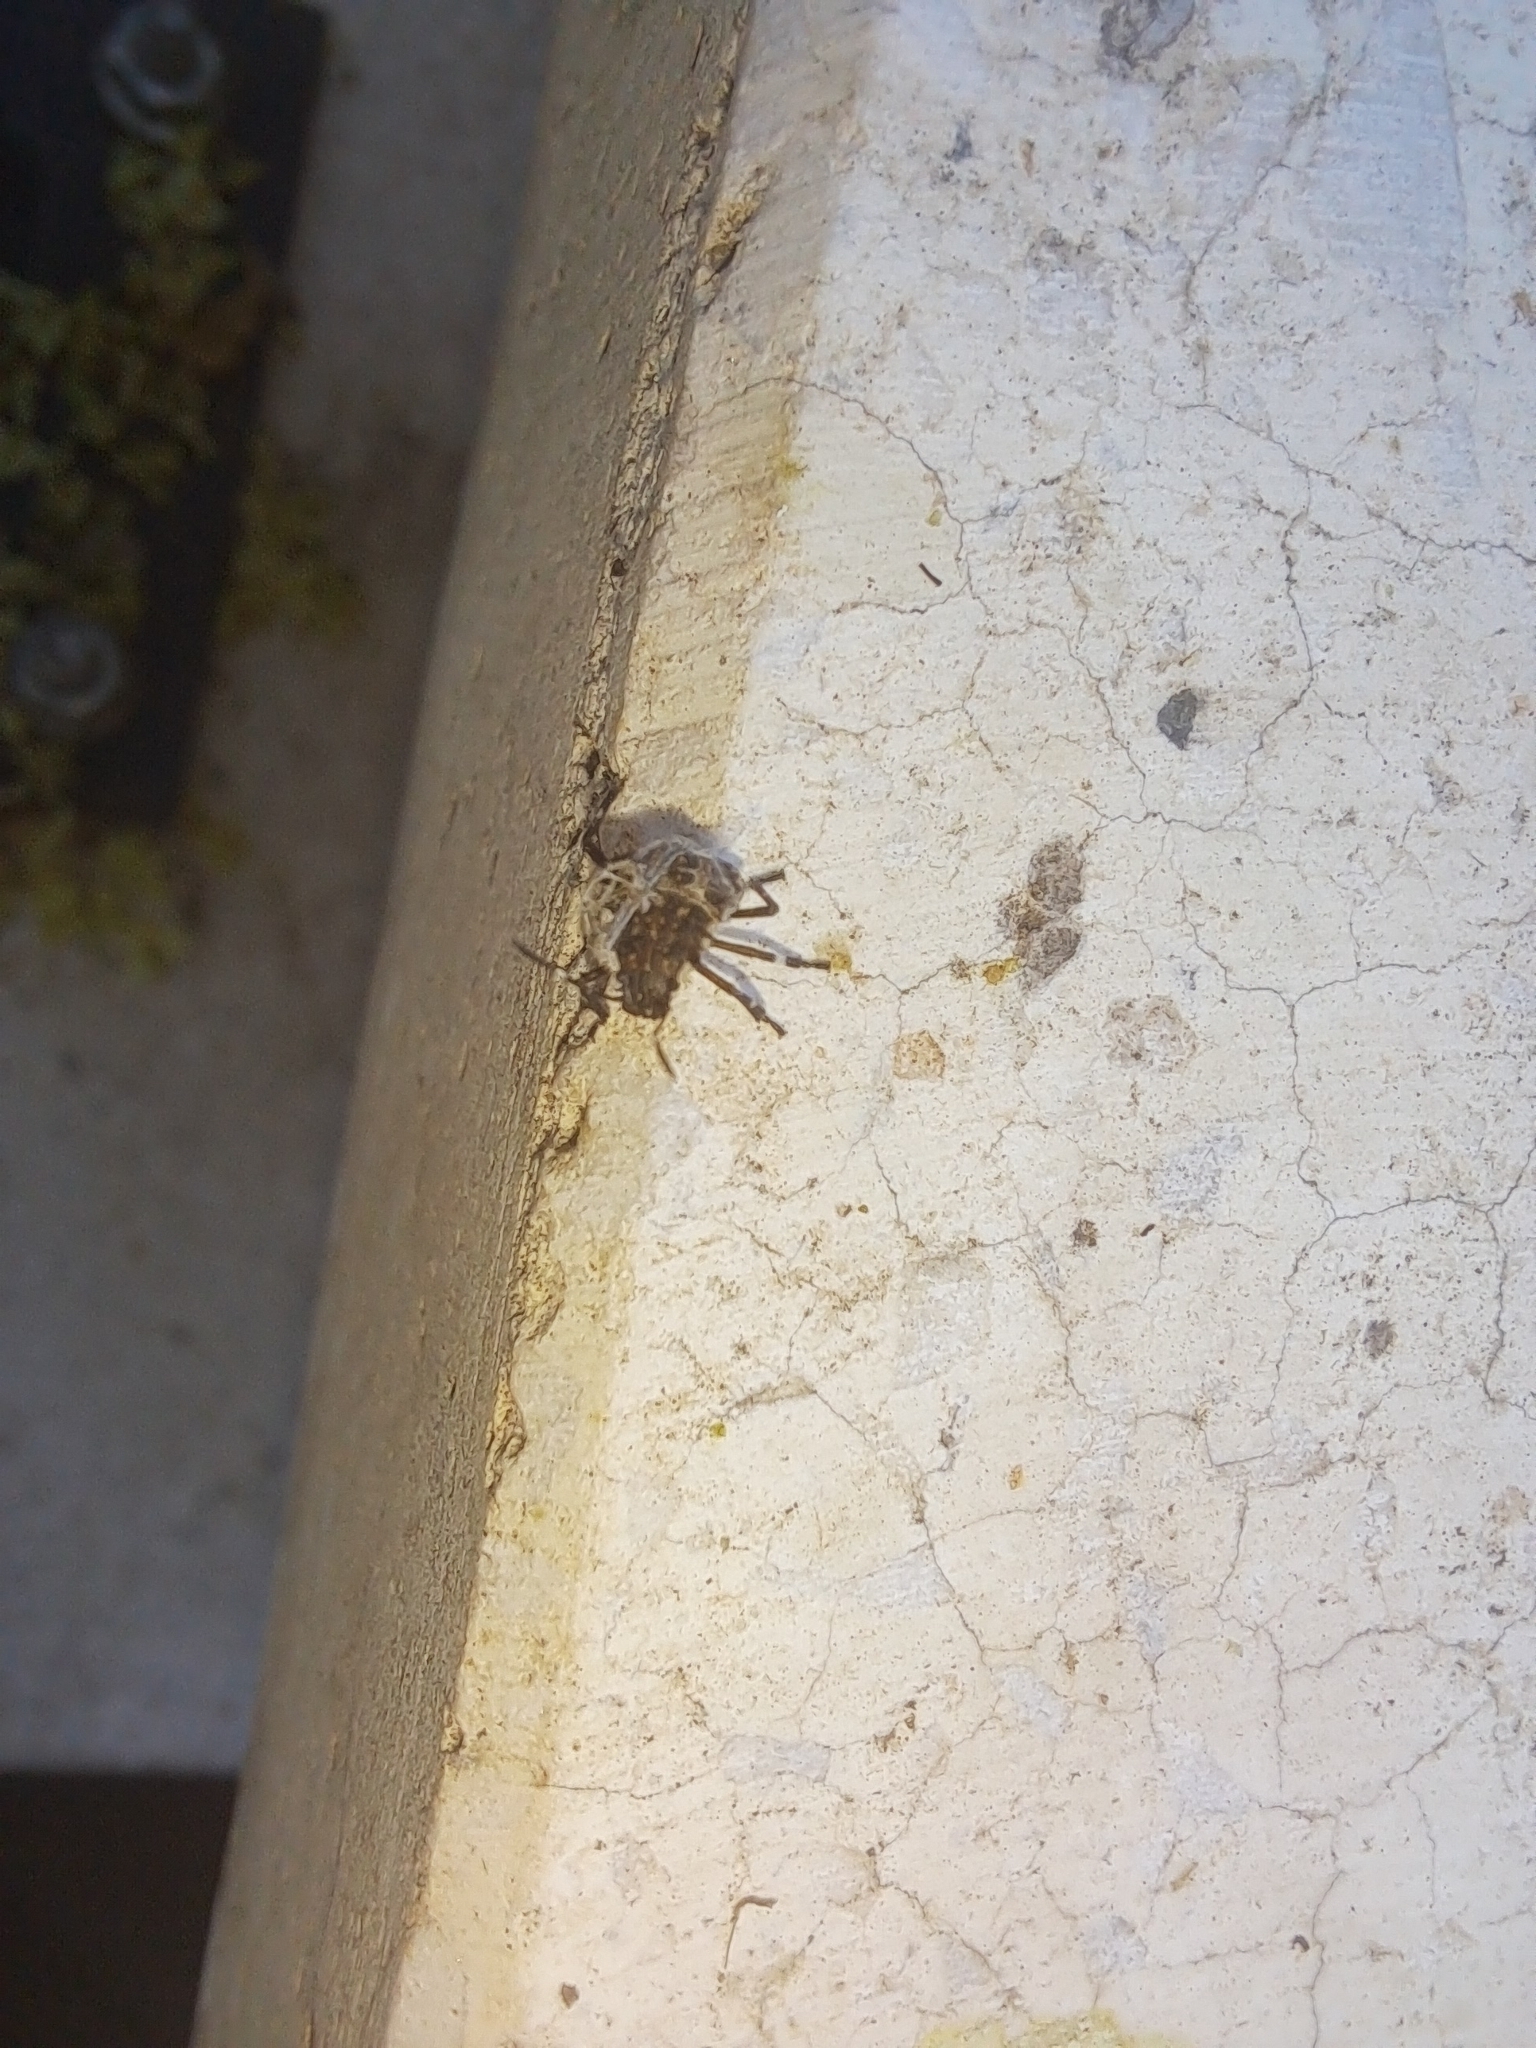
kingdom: Animalia
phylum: Arthropoda
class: Insecta
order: Hemiptera
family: Pentatomidae
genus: Halyomorpha
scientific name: Halyomorpha halys
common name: Brown marmorated stink bug
